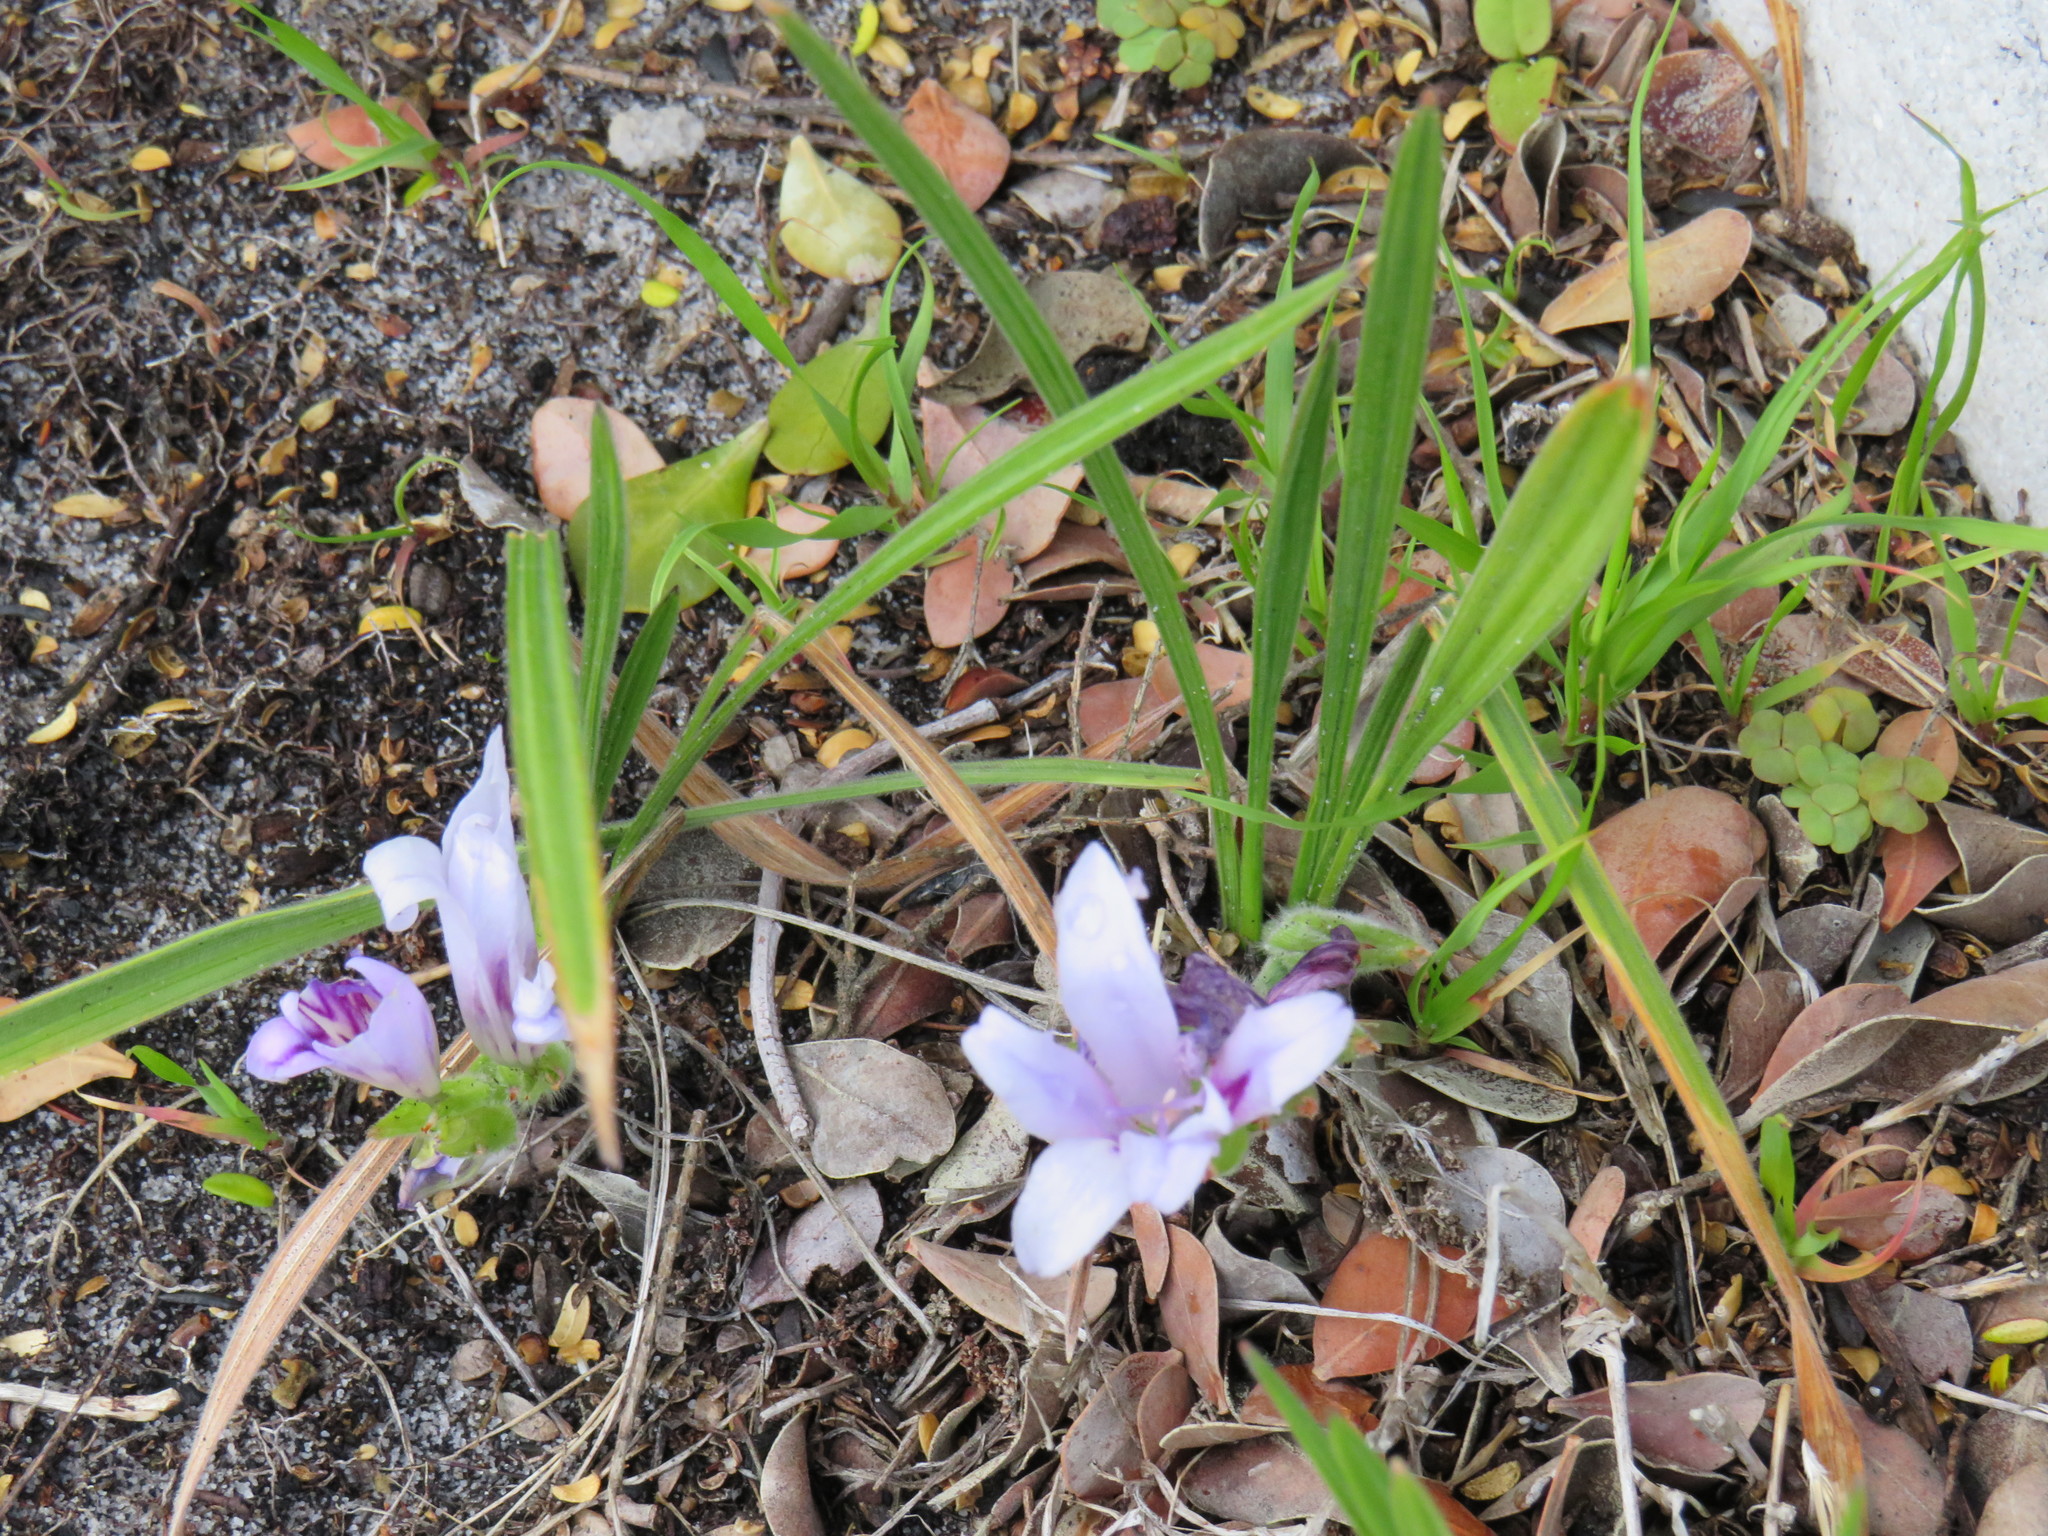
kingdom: Plantae
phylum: Tracheophyta
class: Liliopsida
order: Asparagales
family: Iridaceae
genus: Babiana
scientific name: Babiana ambigua
